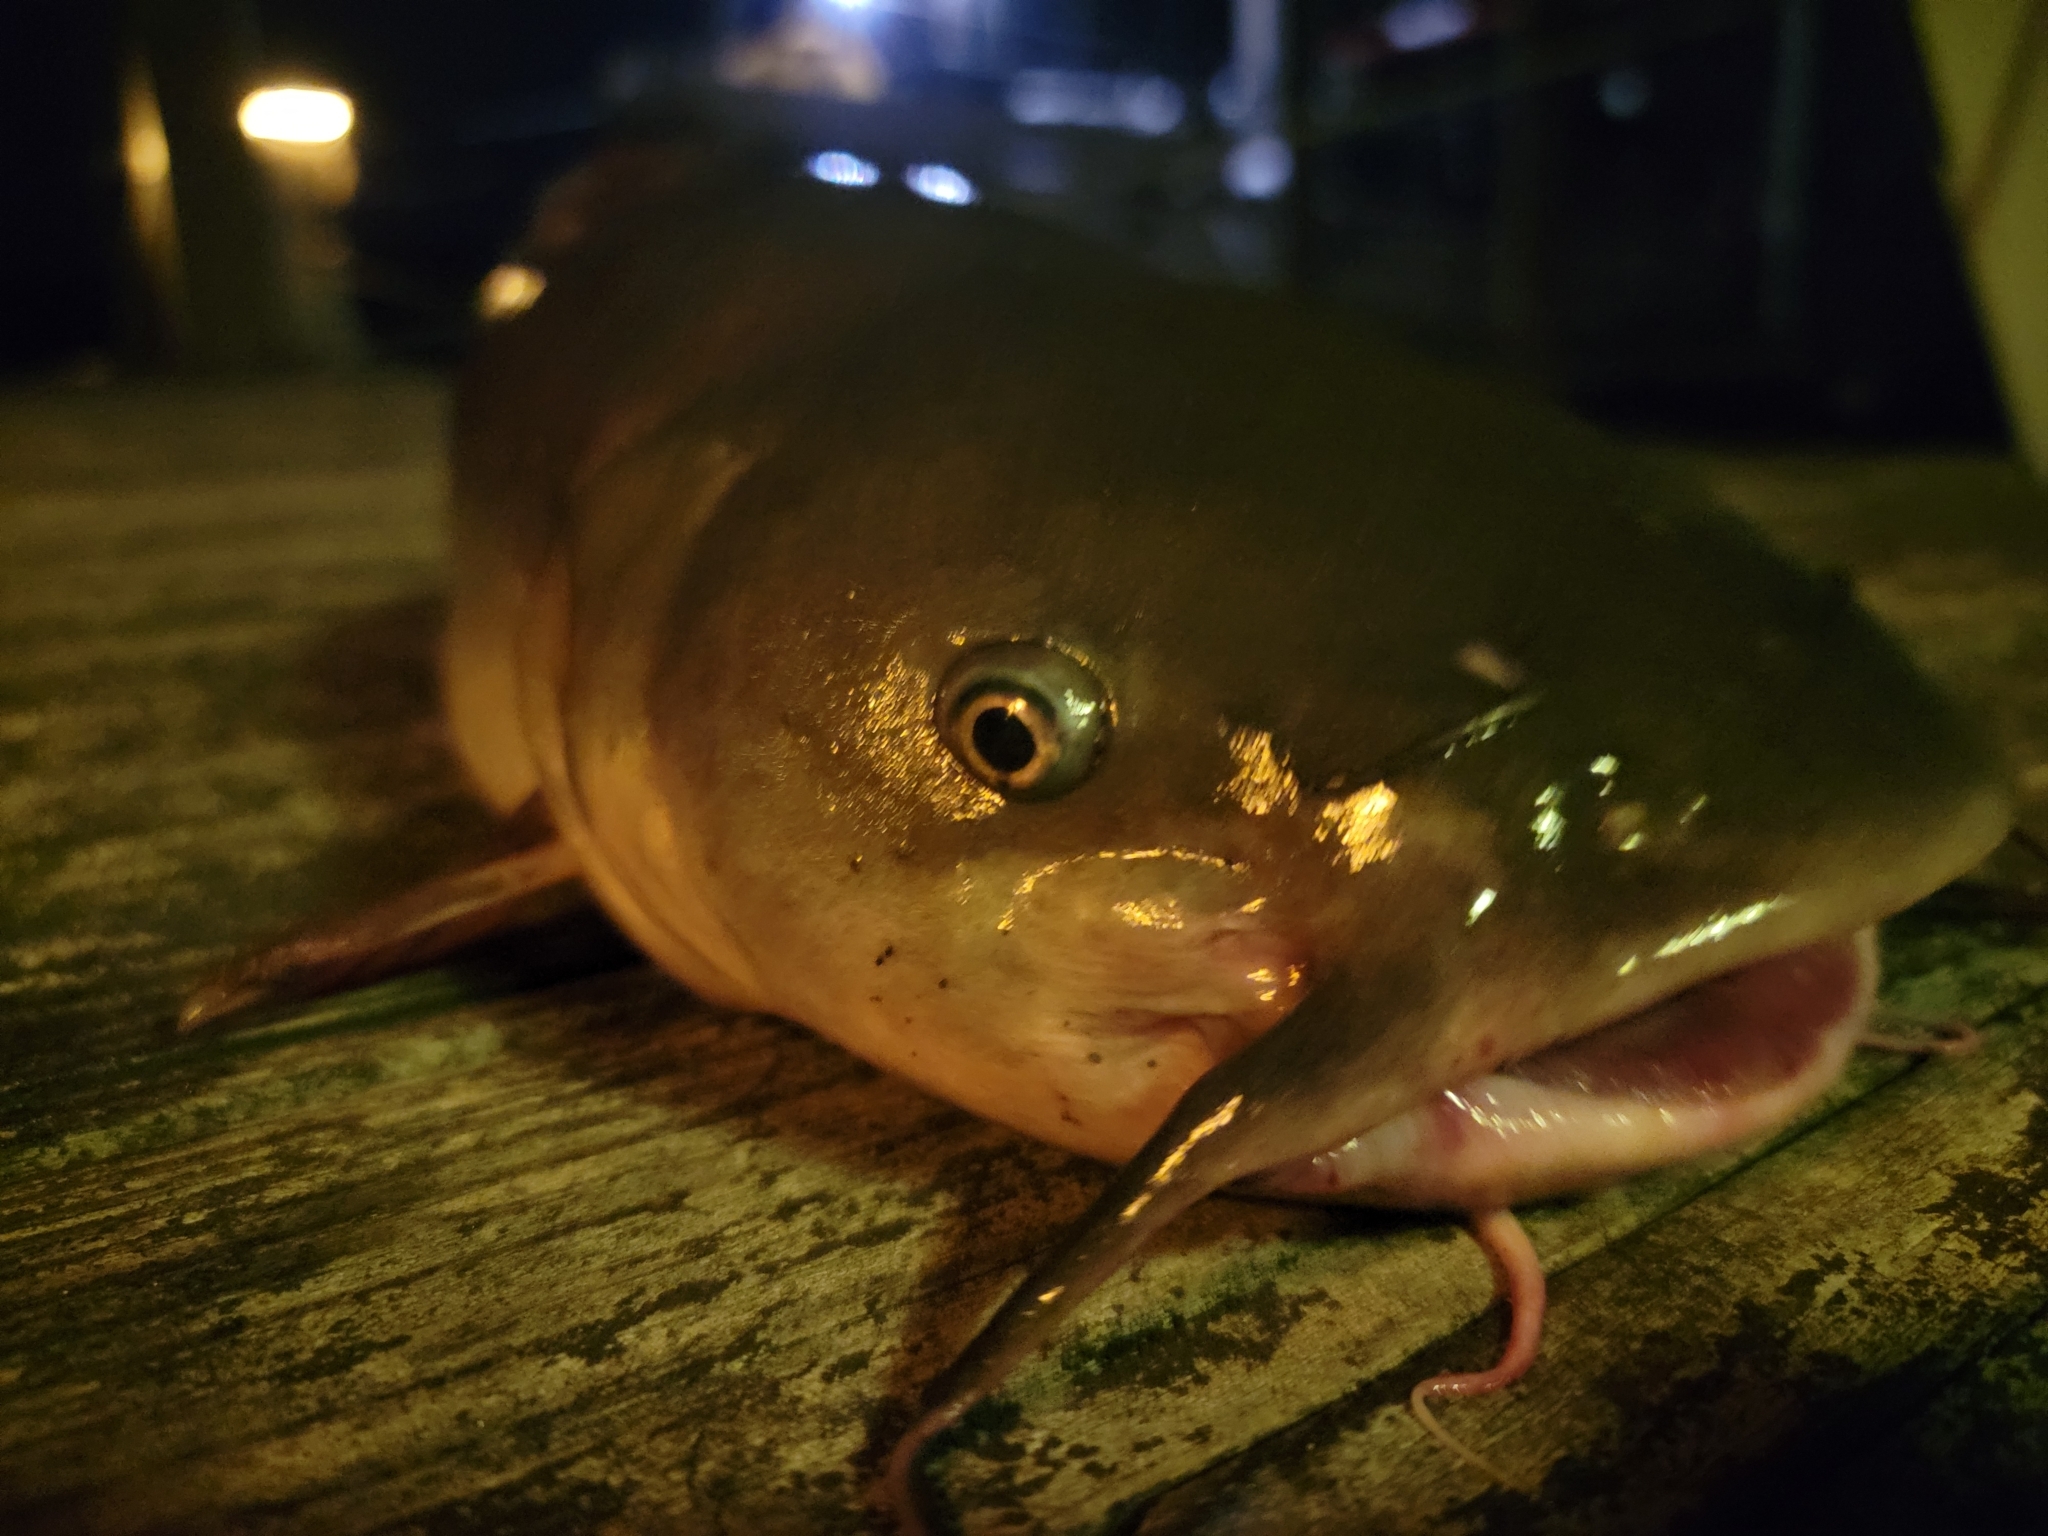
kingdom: Animalia
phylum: Chordata
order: Siluriformes
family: Ictaluridae
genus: Ameiurus
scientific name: Ameiurus catus
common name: White catfish
